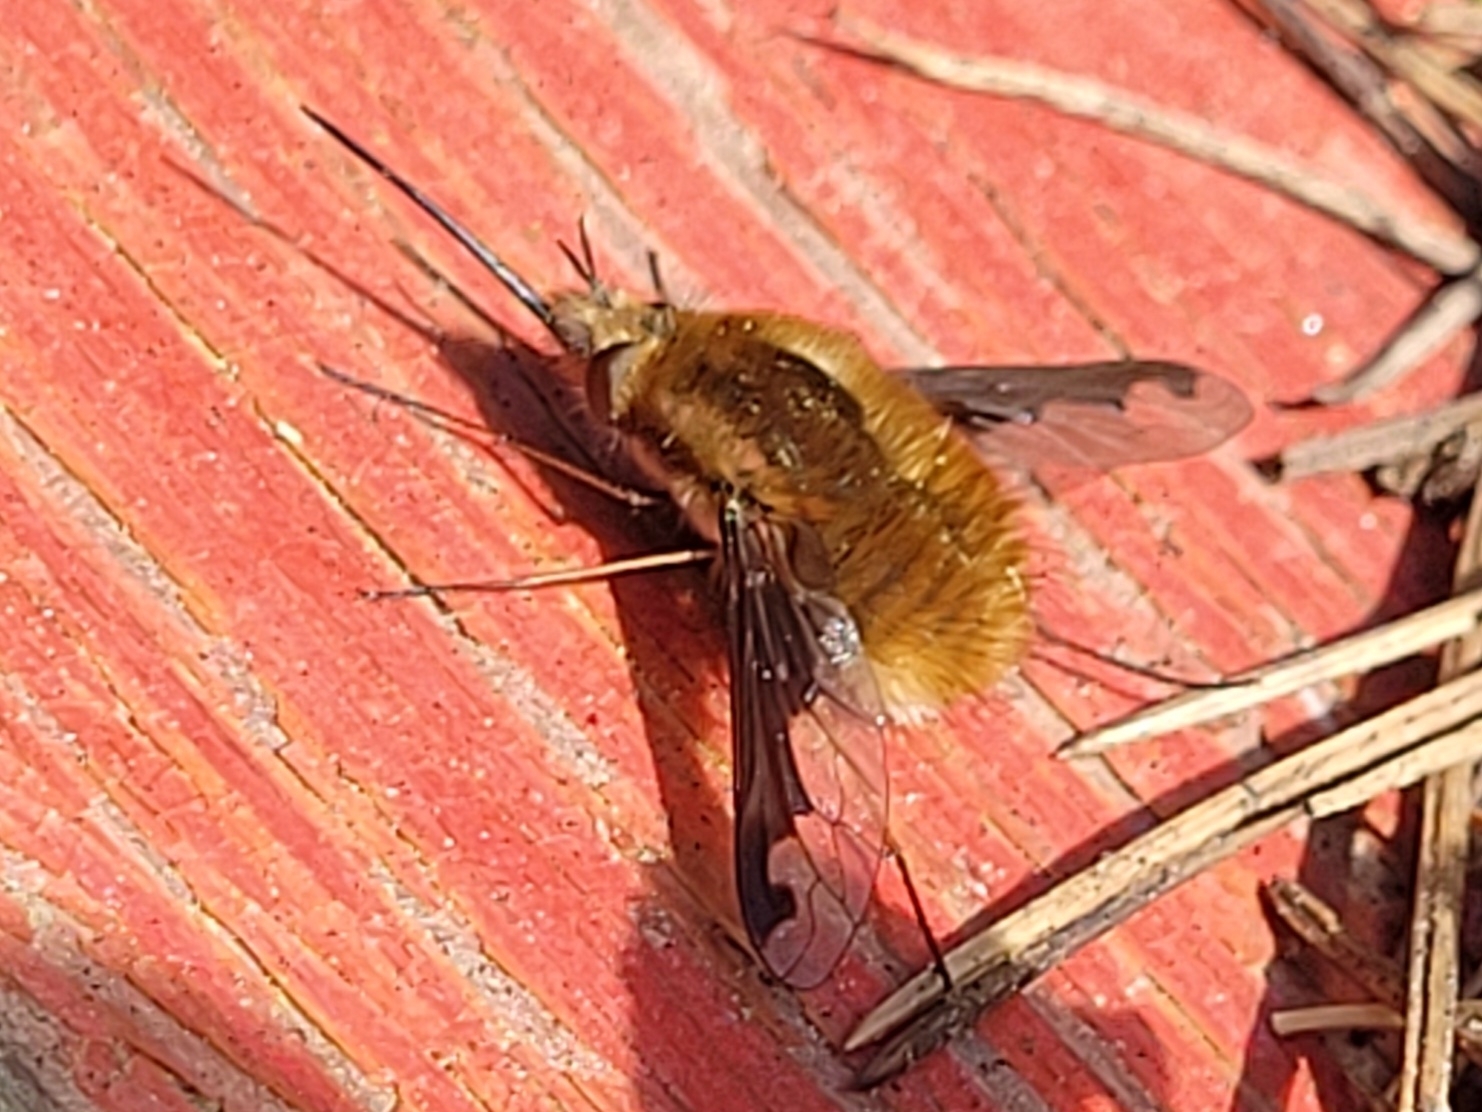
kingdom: Animalia
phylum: Arthropoda
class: Insecta
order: Diptera
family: Bombyliidae
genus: Bombylius
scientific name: Bombylius major
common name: Bee fly
